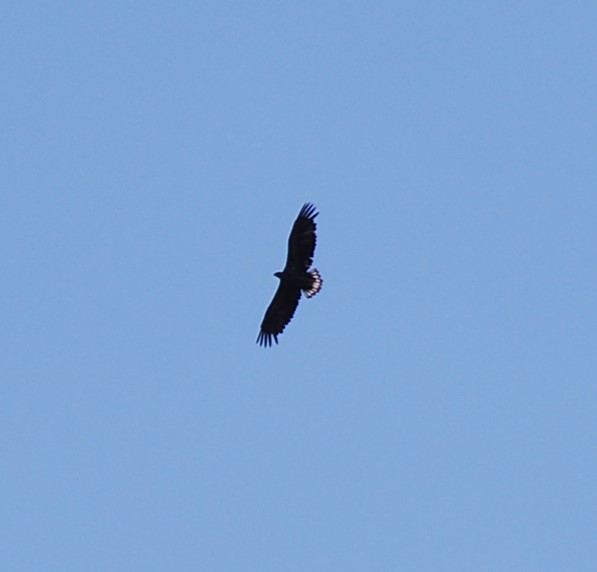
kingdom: Animalia
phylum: Chordata
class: Aves
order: Accipitriformes
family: Accipitridae
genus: Haliaeetus
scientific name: Haliaeetus albicilla
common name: White-tailed eagle
